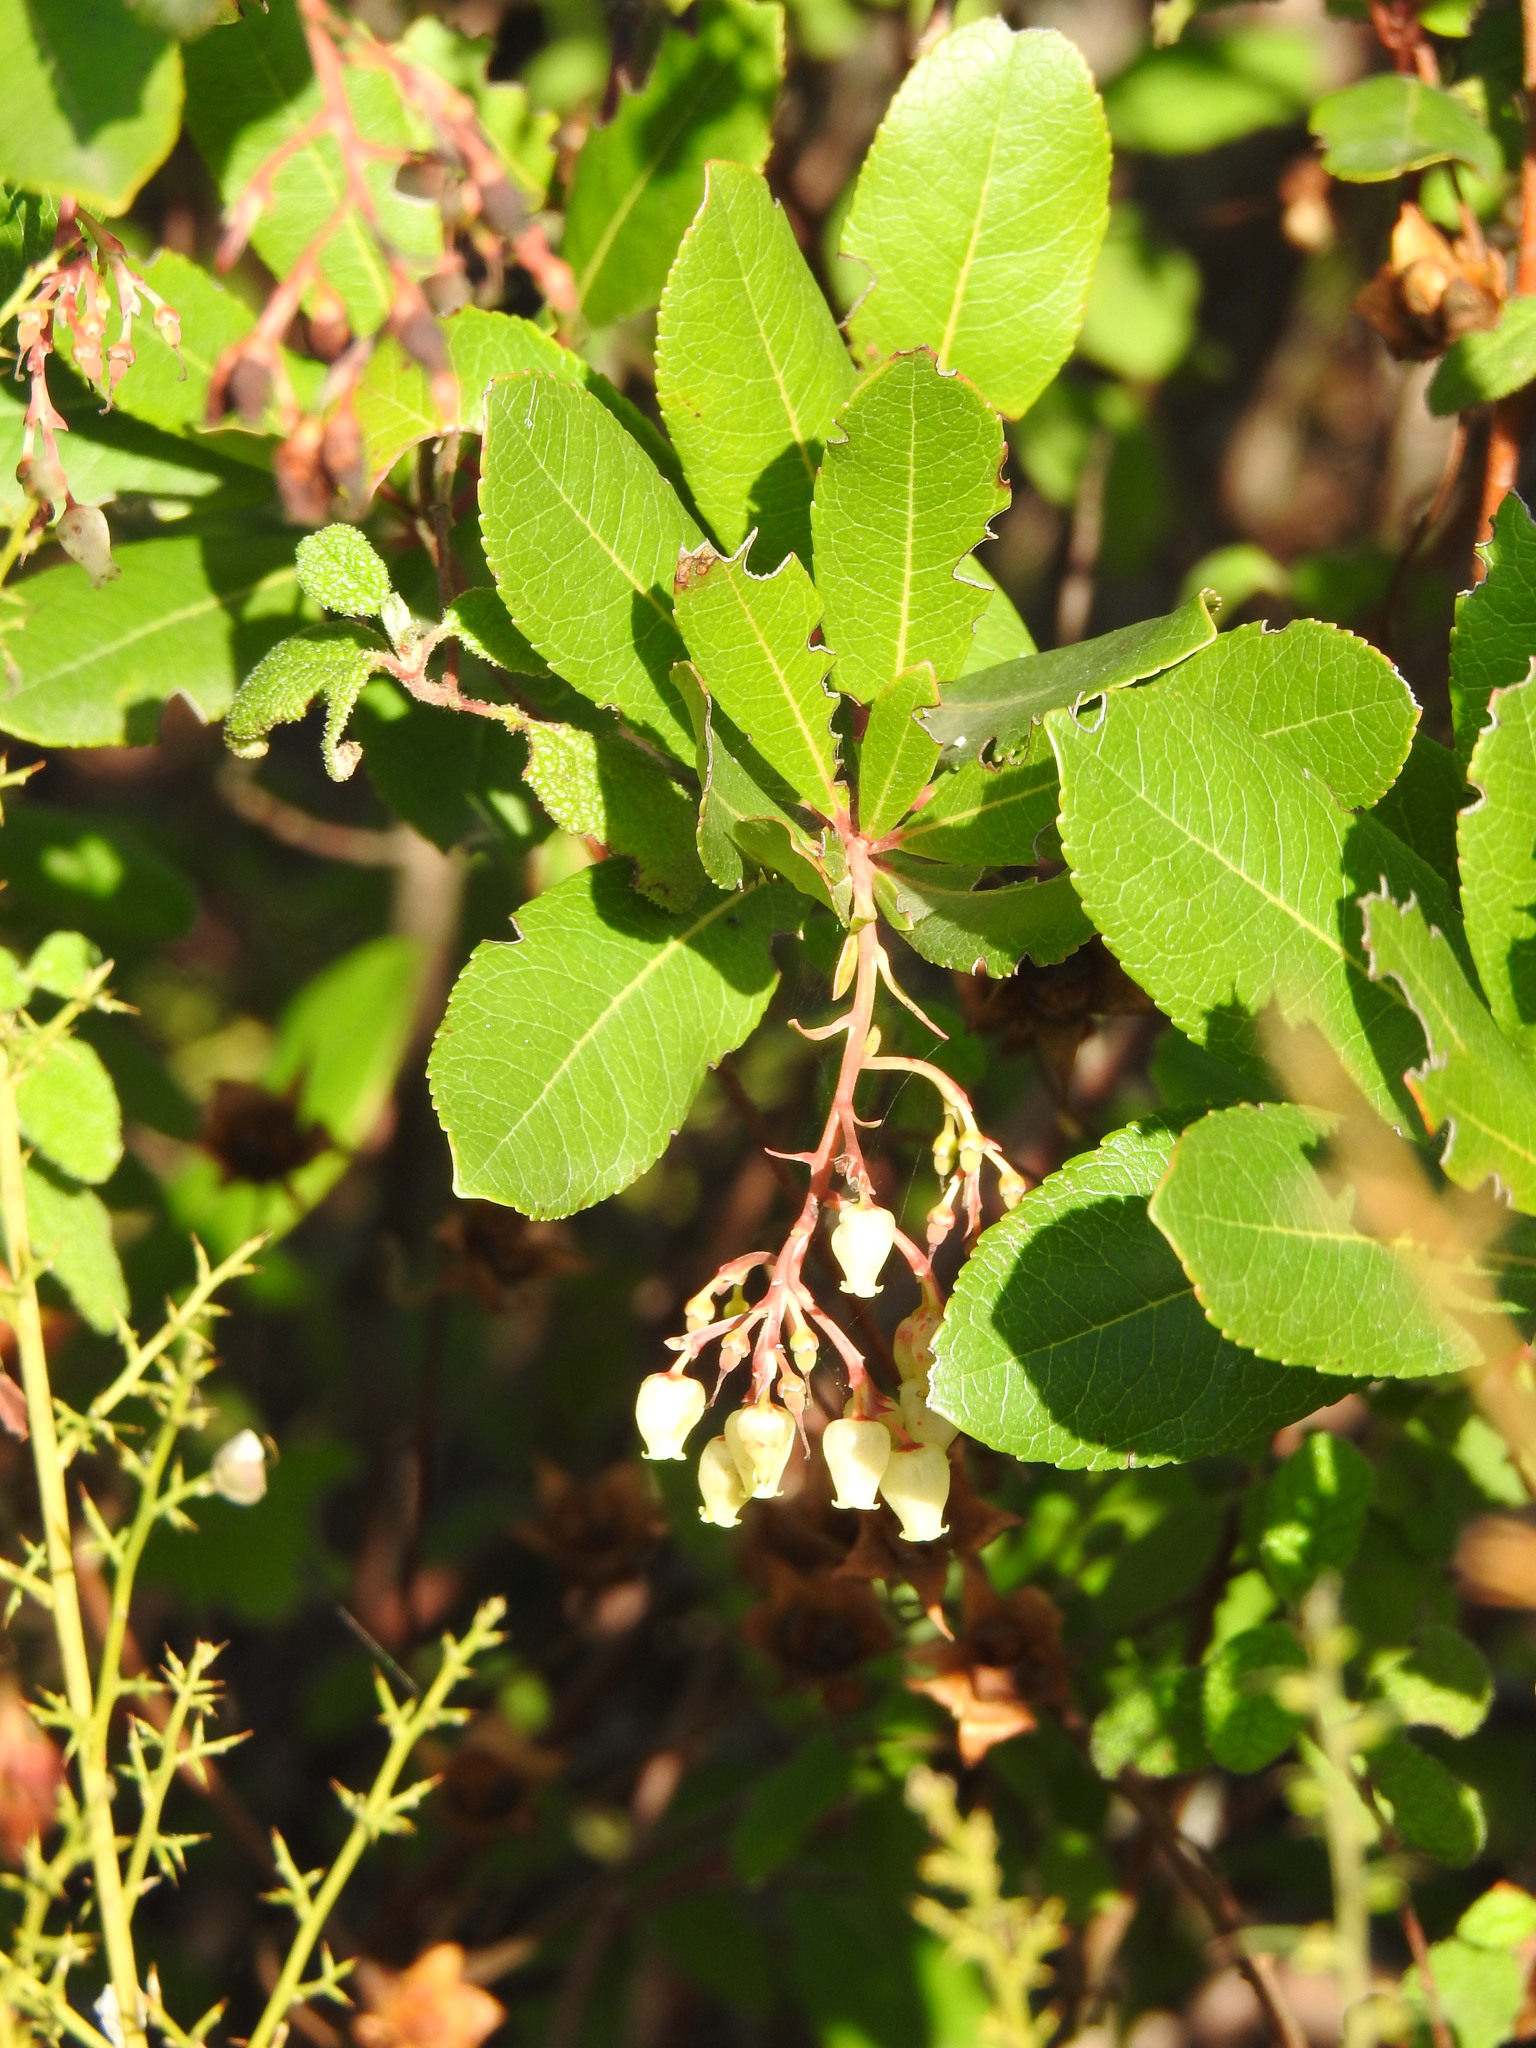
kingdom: Plantae
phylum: Tracheophyta
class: Magnoliopsida
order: Ericales
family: Ericaceae
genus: Arbutus
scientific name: Arbutus unedo
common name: Strawberry-tree
